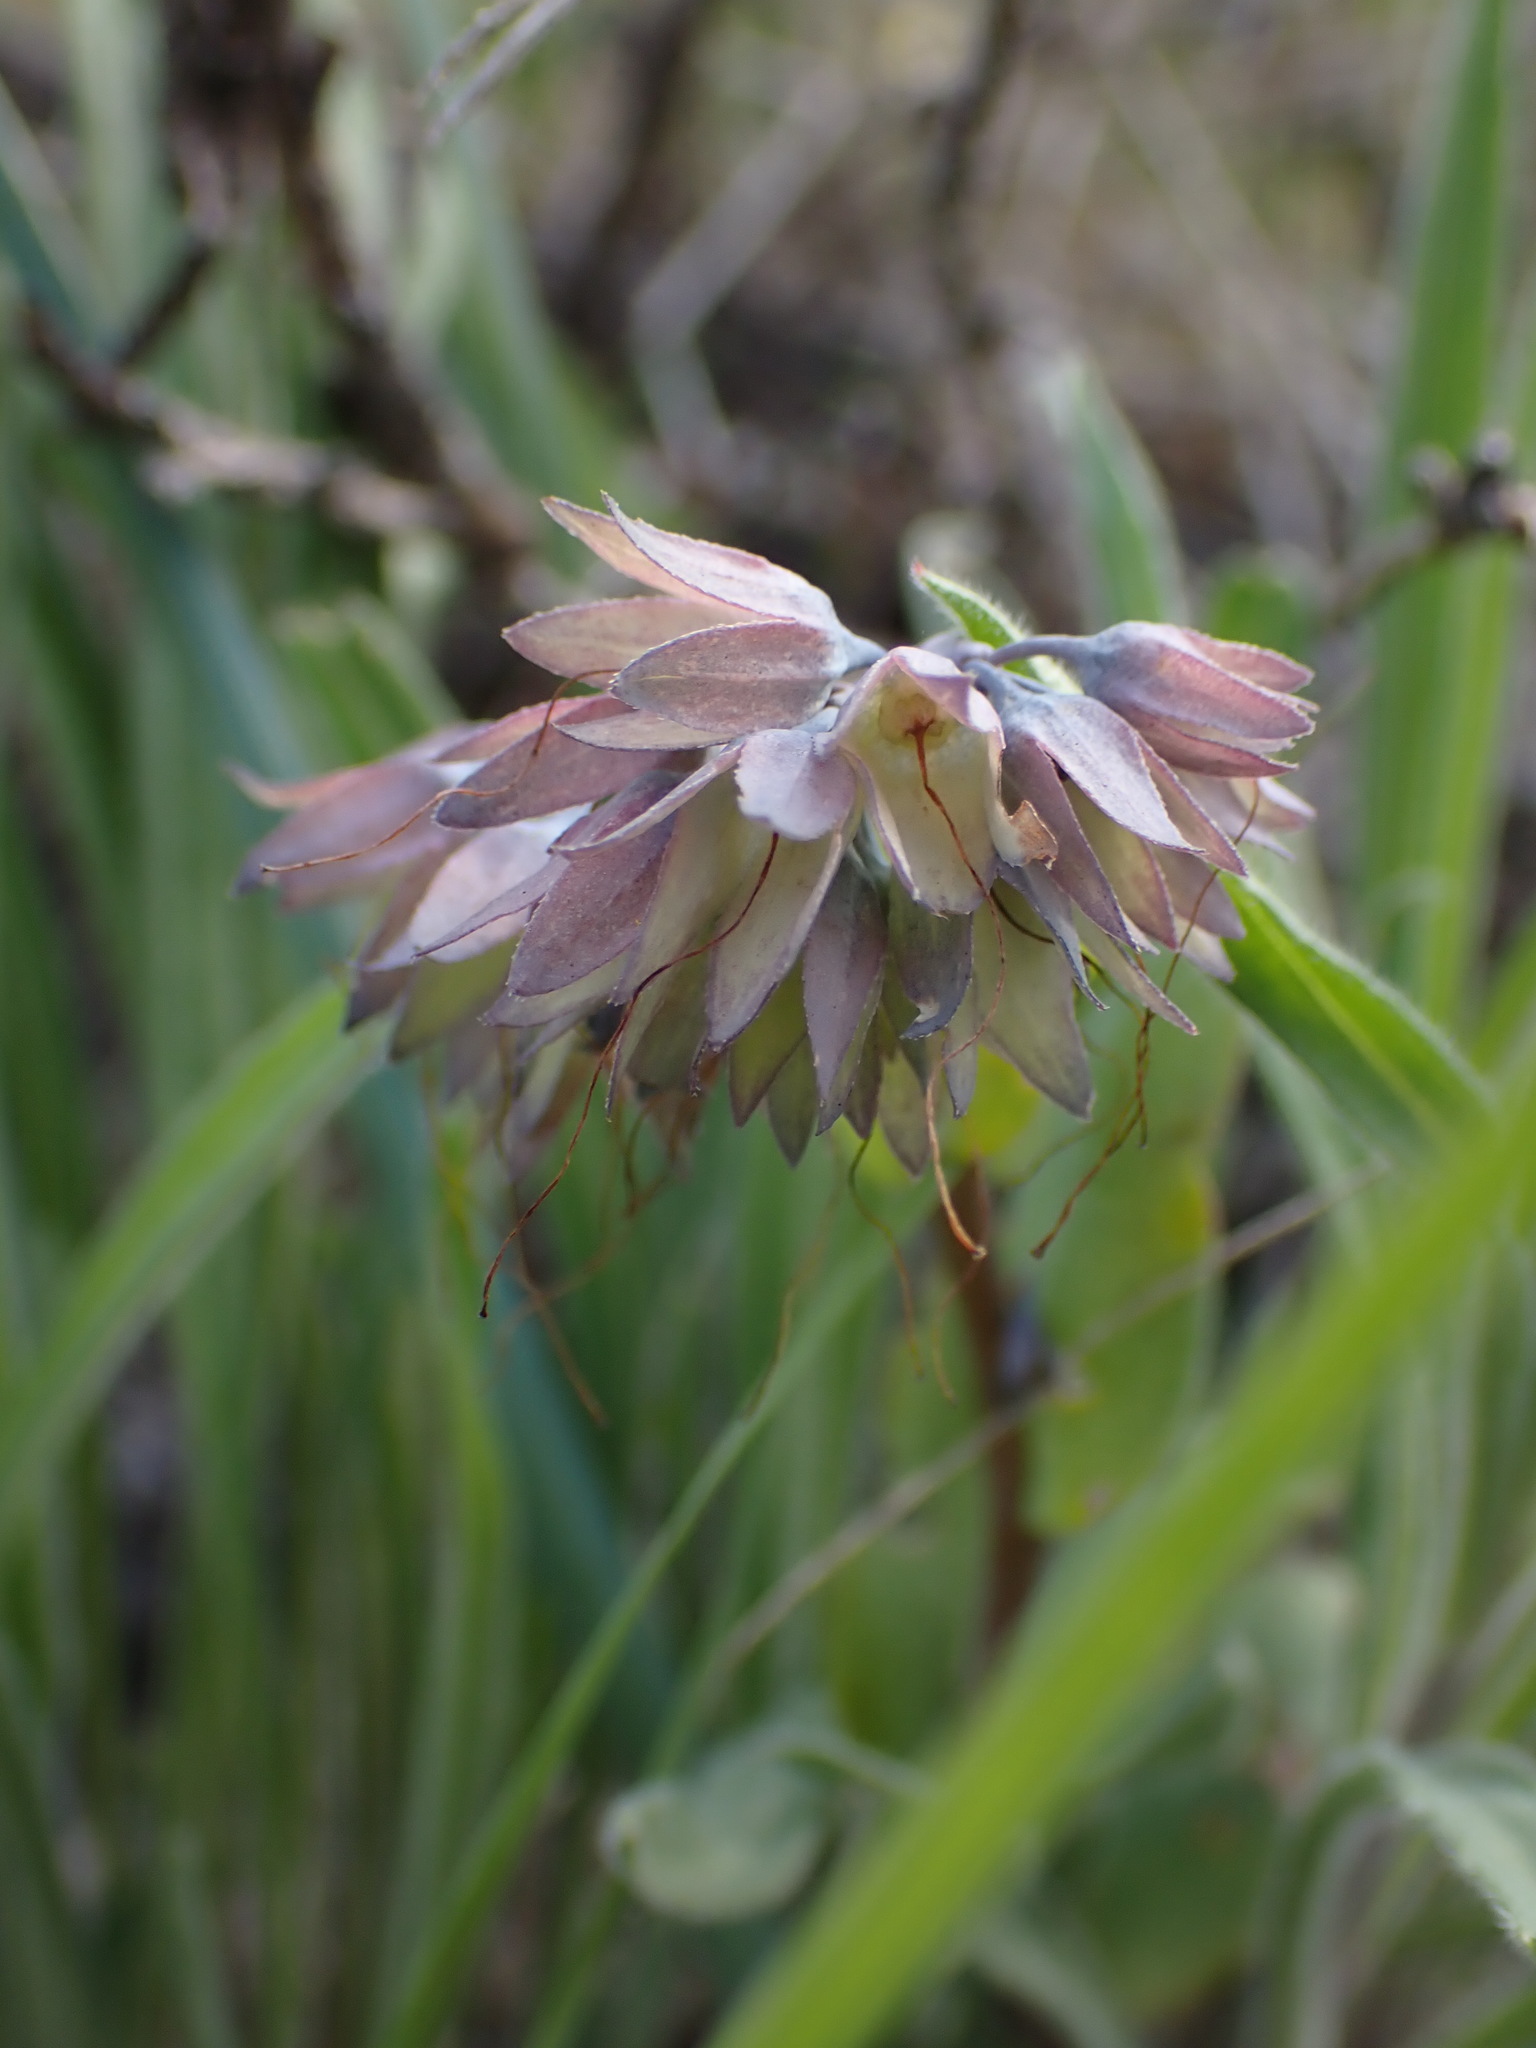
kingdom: Plantae
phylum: Tracheophyta
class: Magnoliopsida
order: Boraginales
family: Boraginaceae
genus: Mertensia
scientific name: Mertensia longiflora
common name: Large-flowered bluebells
